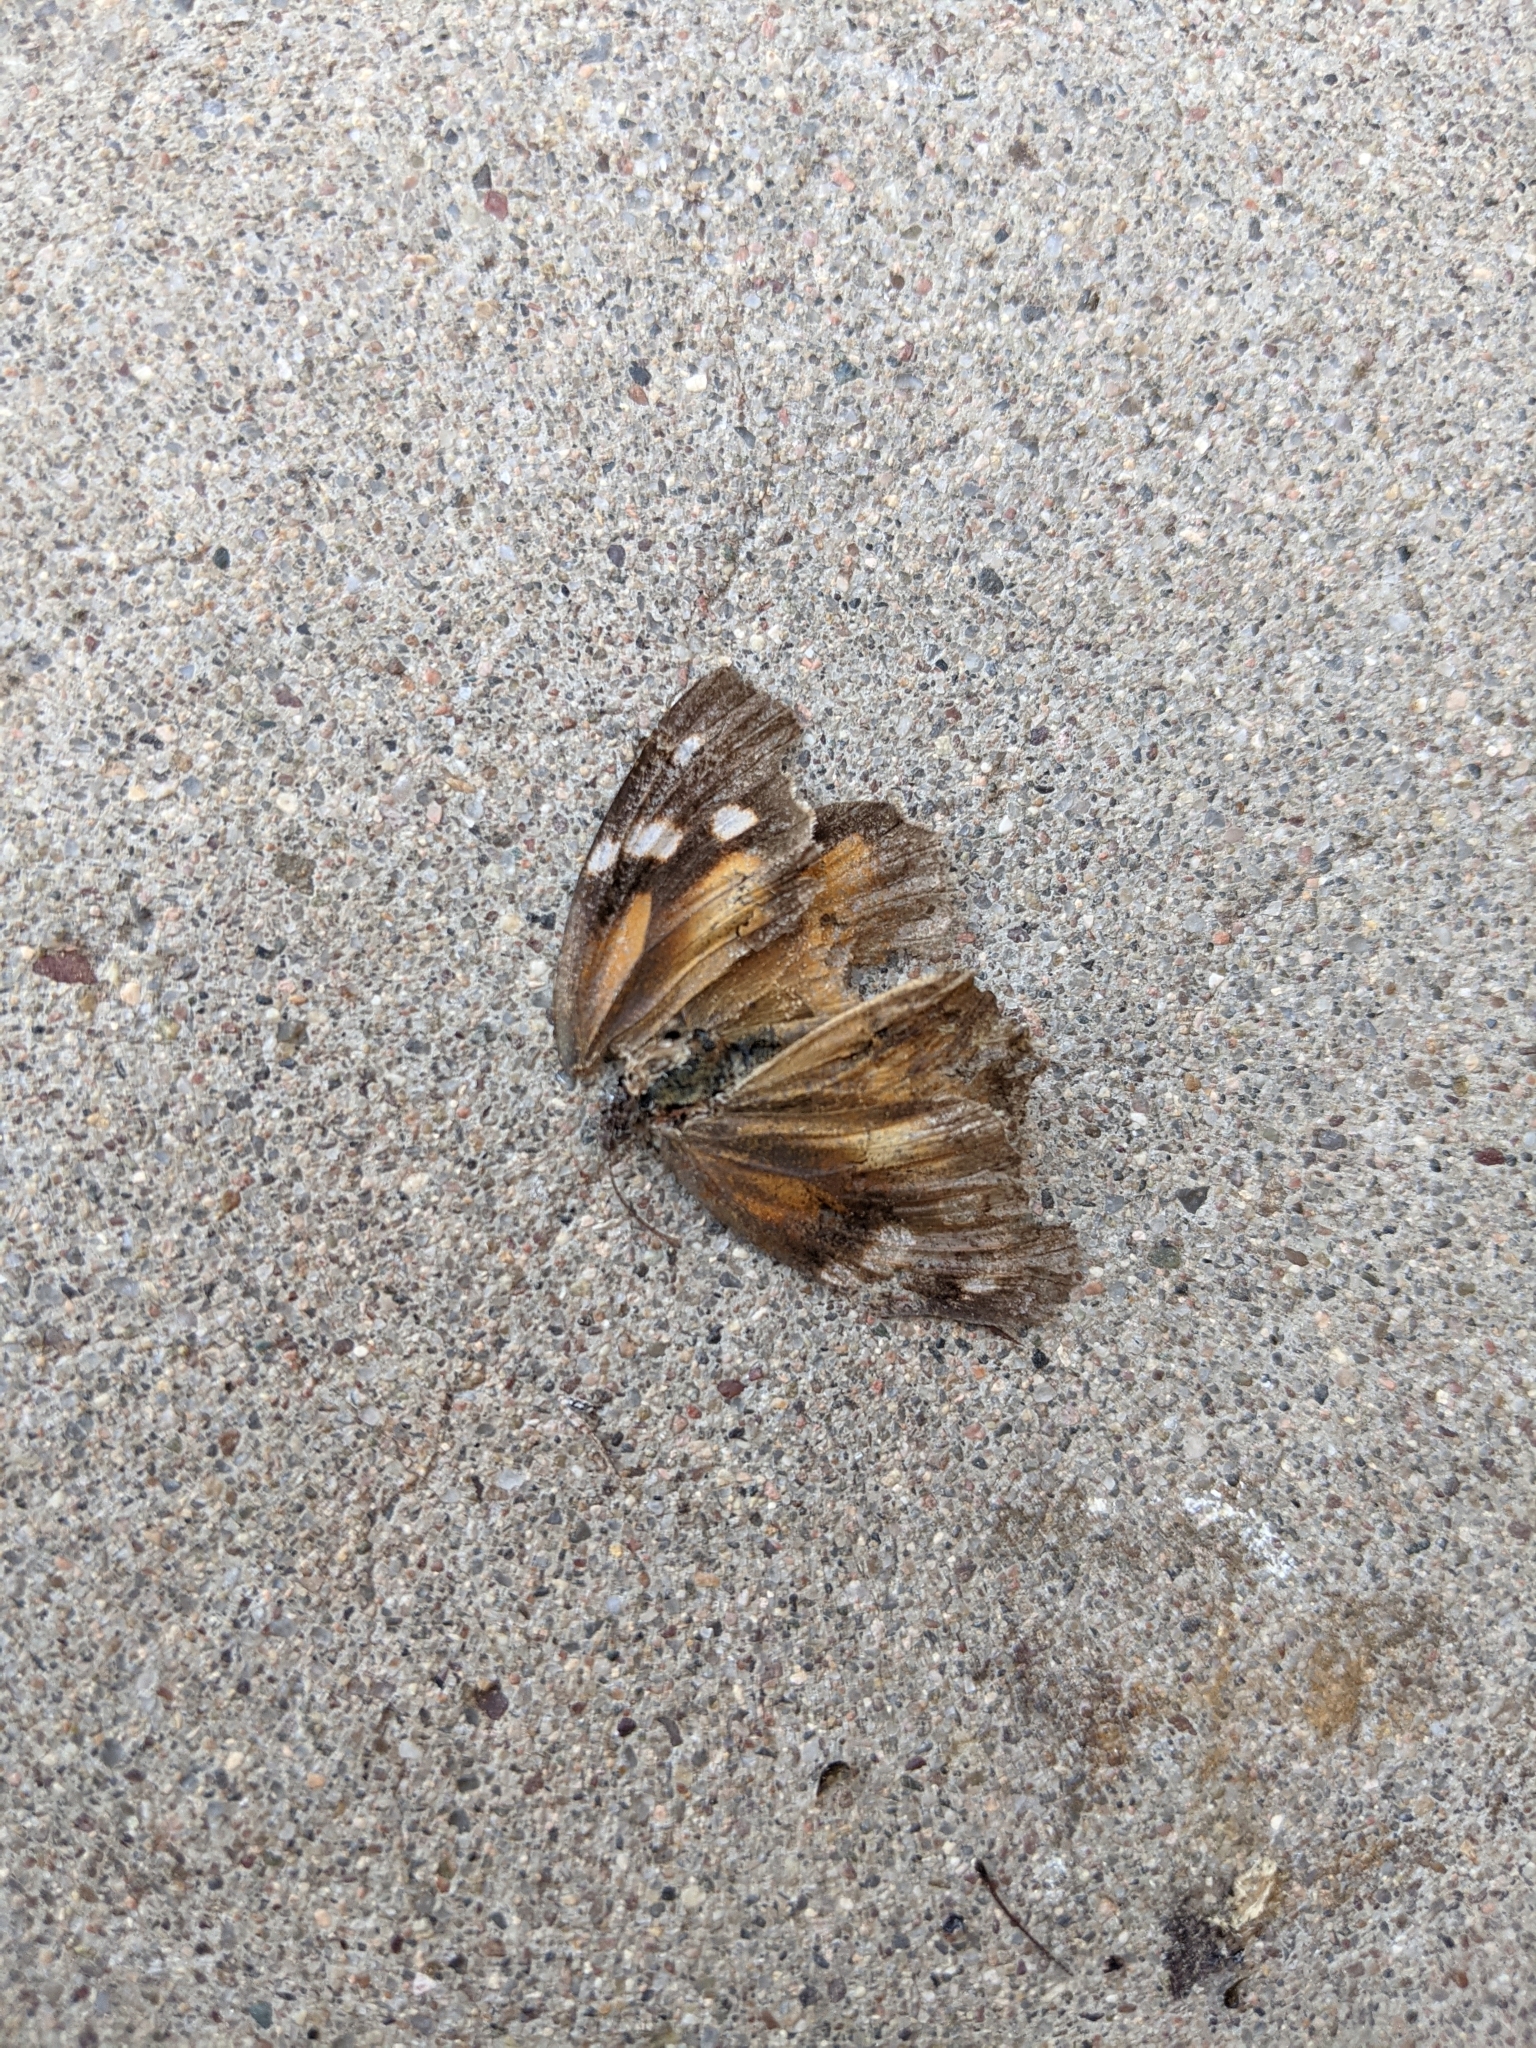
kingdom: Animalia
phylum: Arthropoda
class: Insecta
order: Lepidoptera
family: Nymphalidae
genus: Libytheana
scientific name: Libytheana carinenta
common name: American snout
